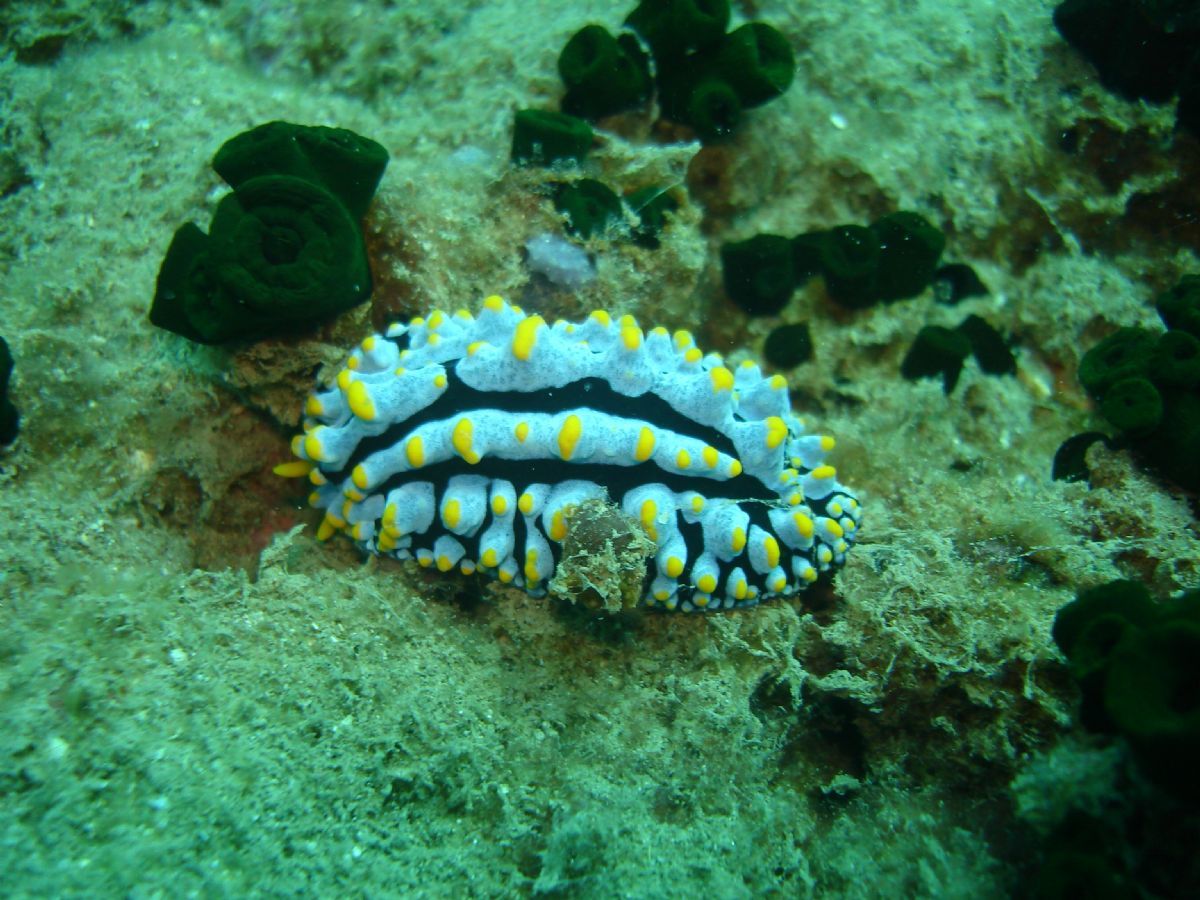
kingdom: Animalia
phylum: Mollusca
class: Gastropoda
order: Nudibranchia
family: Phyllidiidae
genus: Phyllidia
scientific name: Phyllidia varicosa
